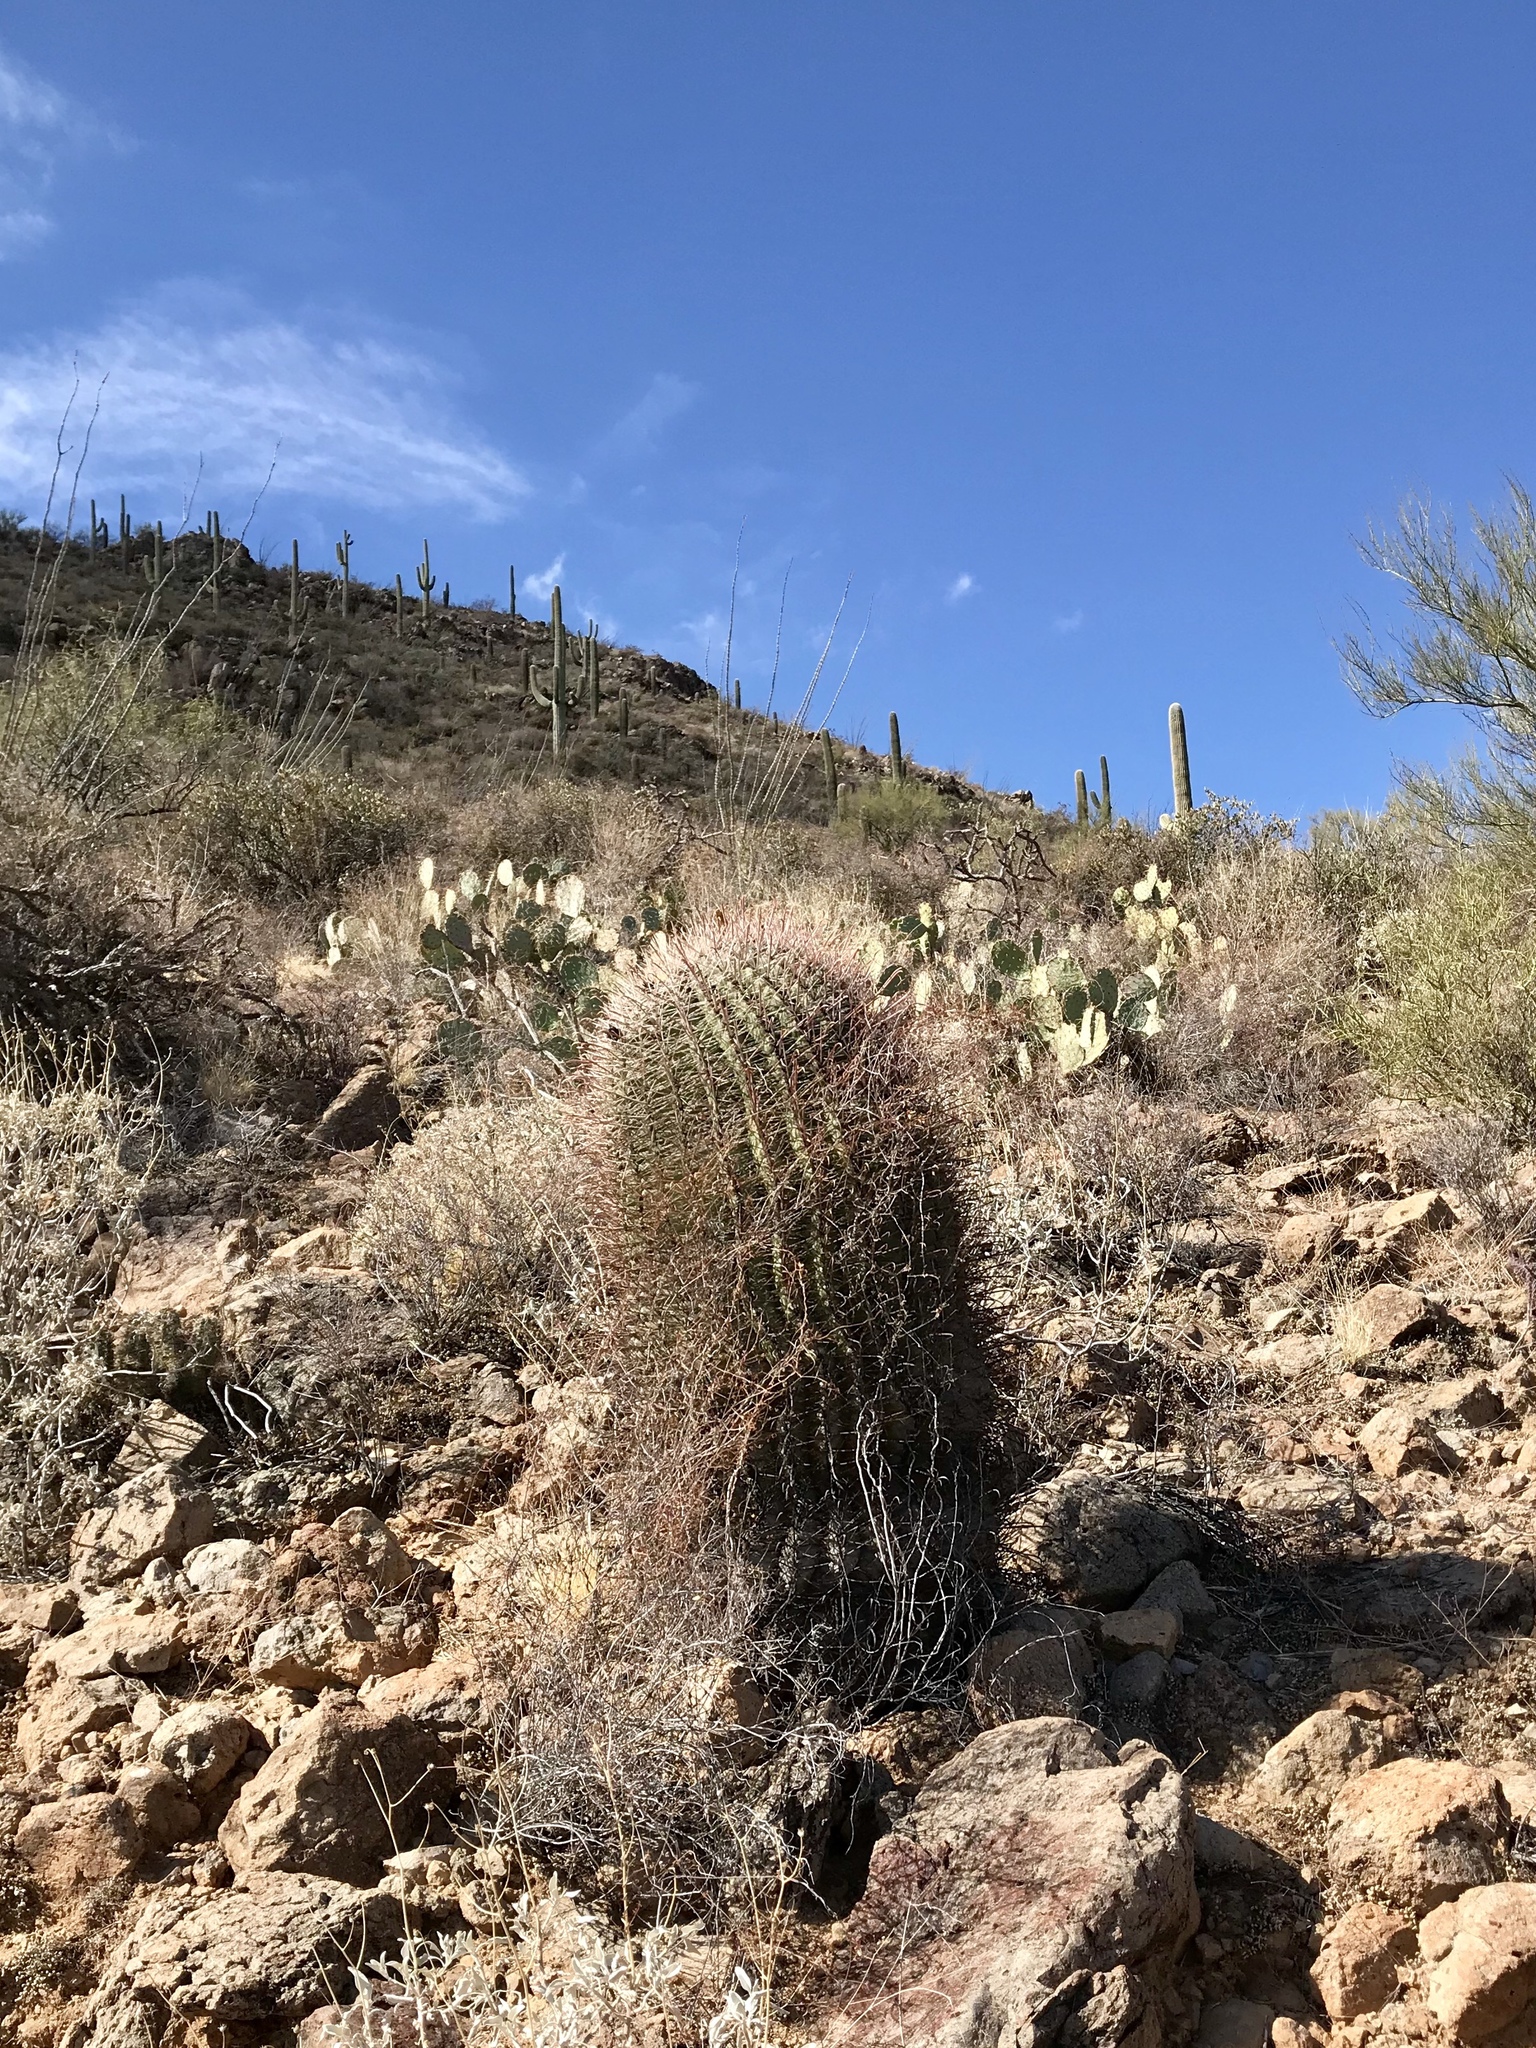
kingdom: Plantae
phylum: Tracheophyta
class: Magnoliopsida
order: Caryophyllales
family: Cactaceae
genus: Ferocactus
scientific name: Ferocactus wislizeni
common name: Candy barrel cactus
